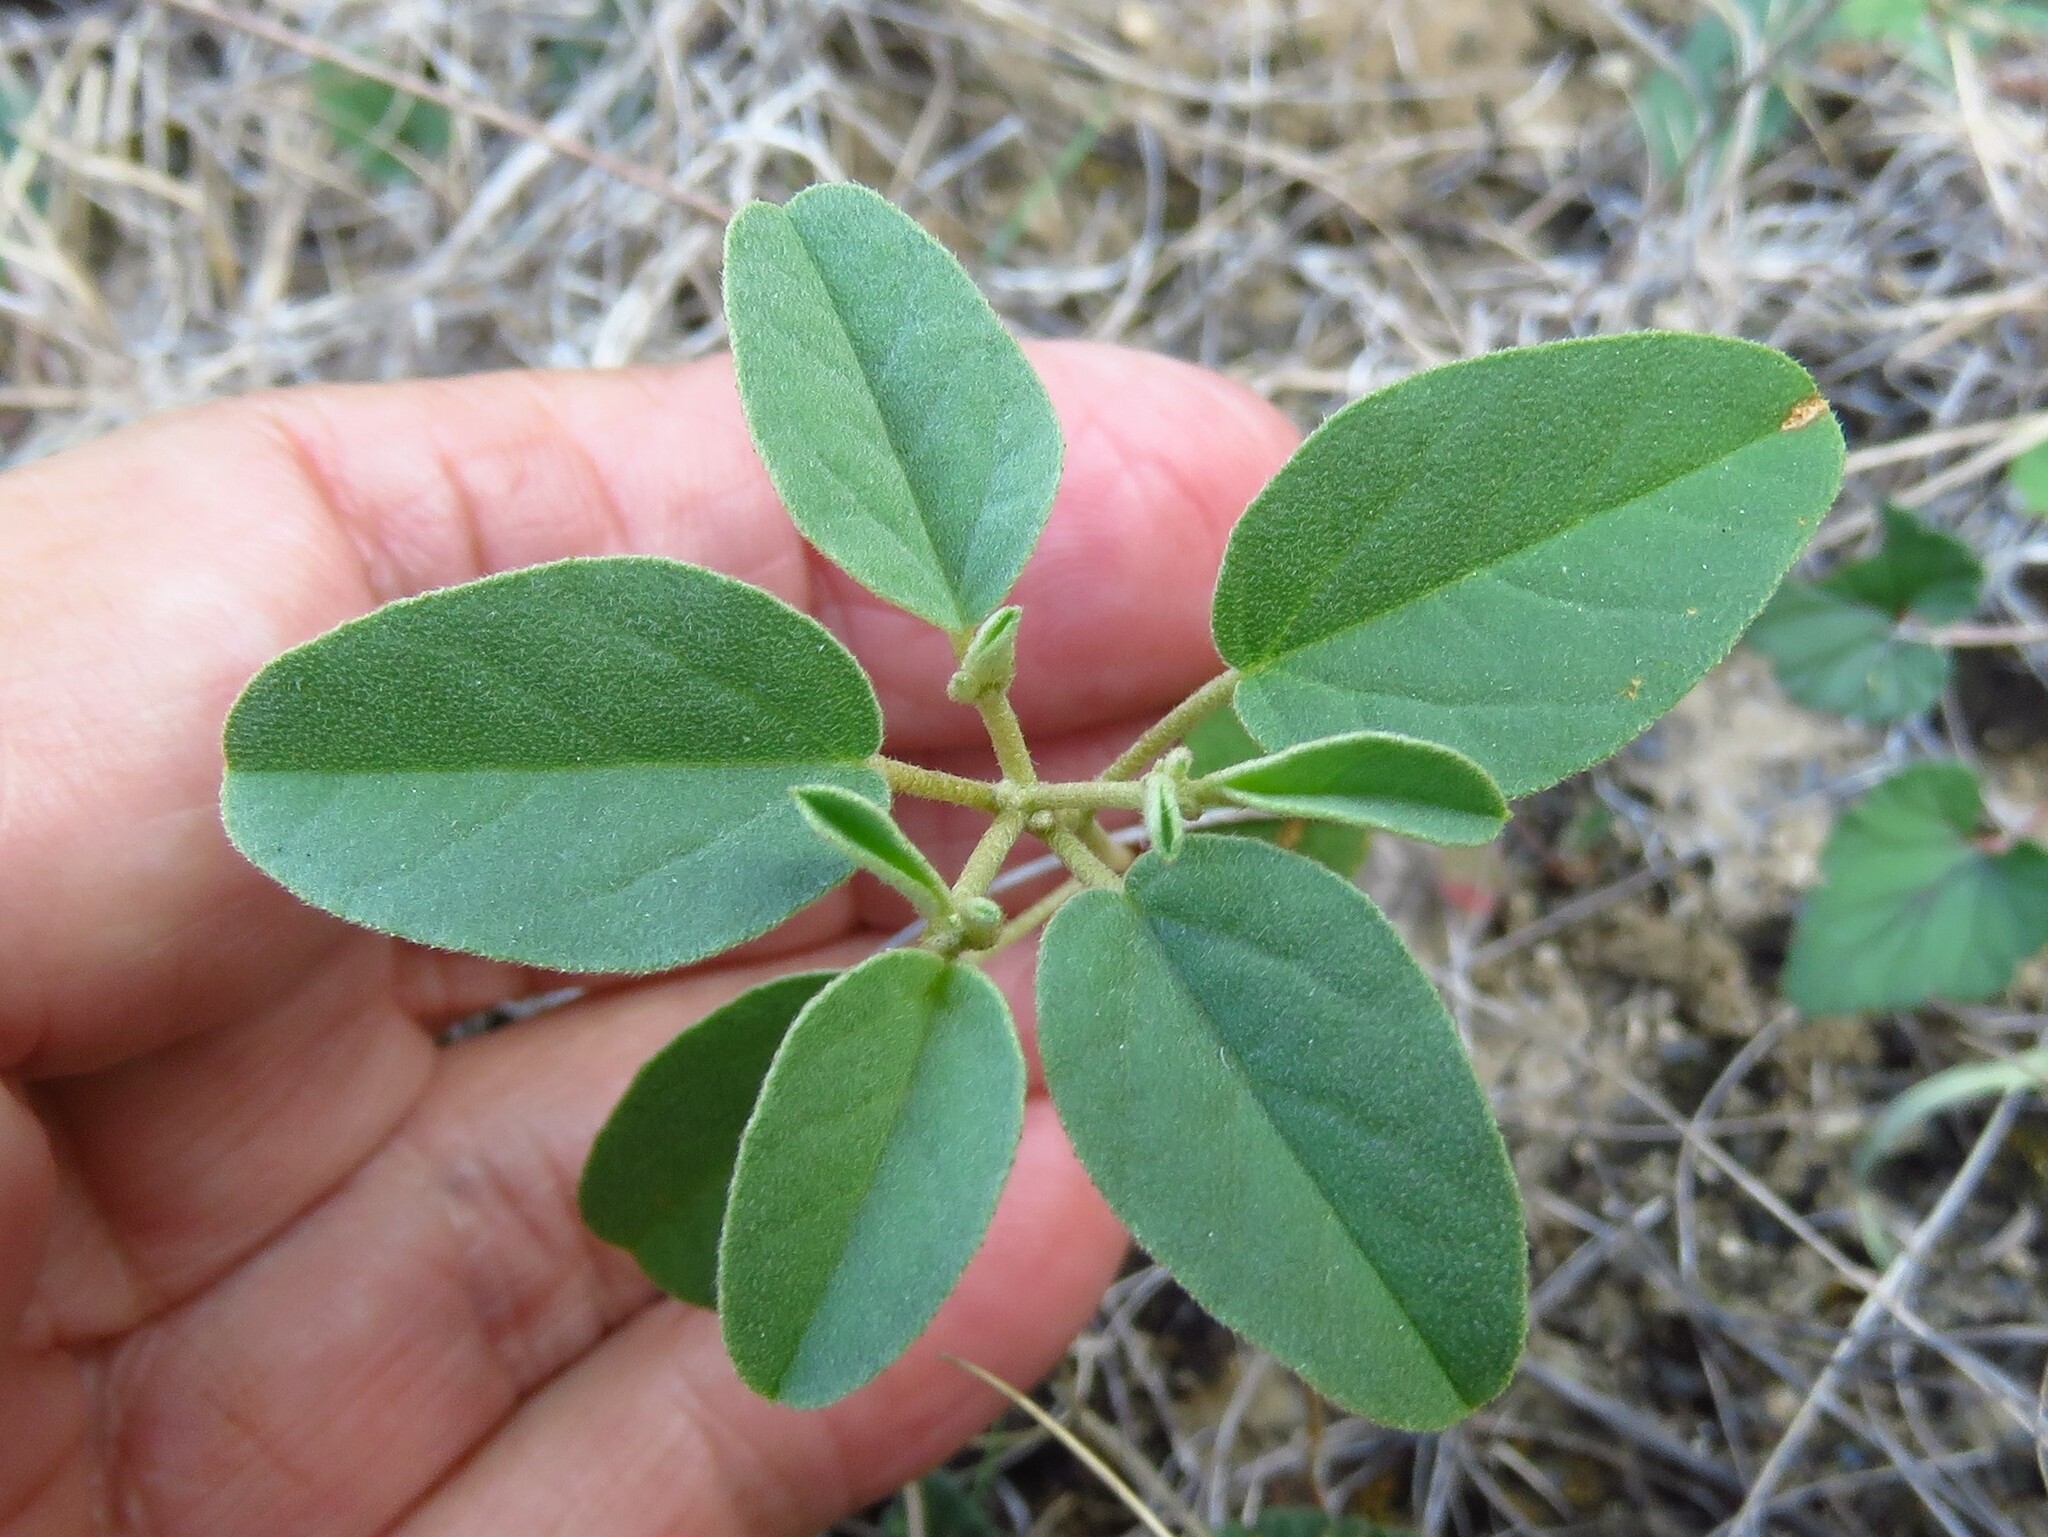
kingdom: Plantae
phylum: Tracheophyta
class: Magnoliopsida
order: Malpighiales
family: Euphorbiaceae
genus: Croton
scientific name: Croton monanthogynus
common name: One-seed croton
